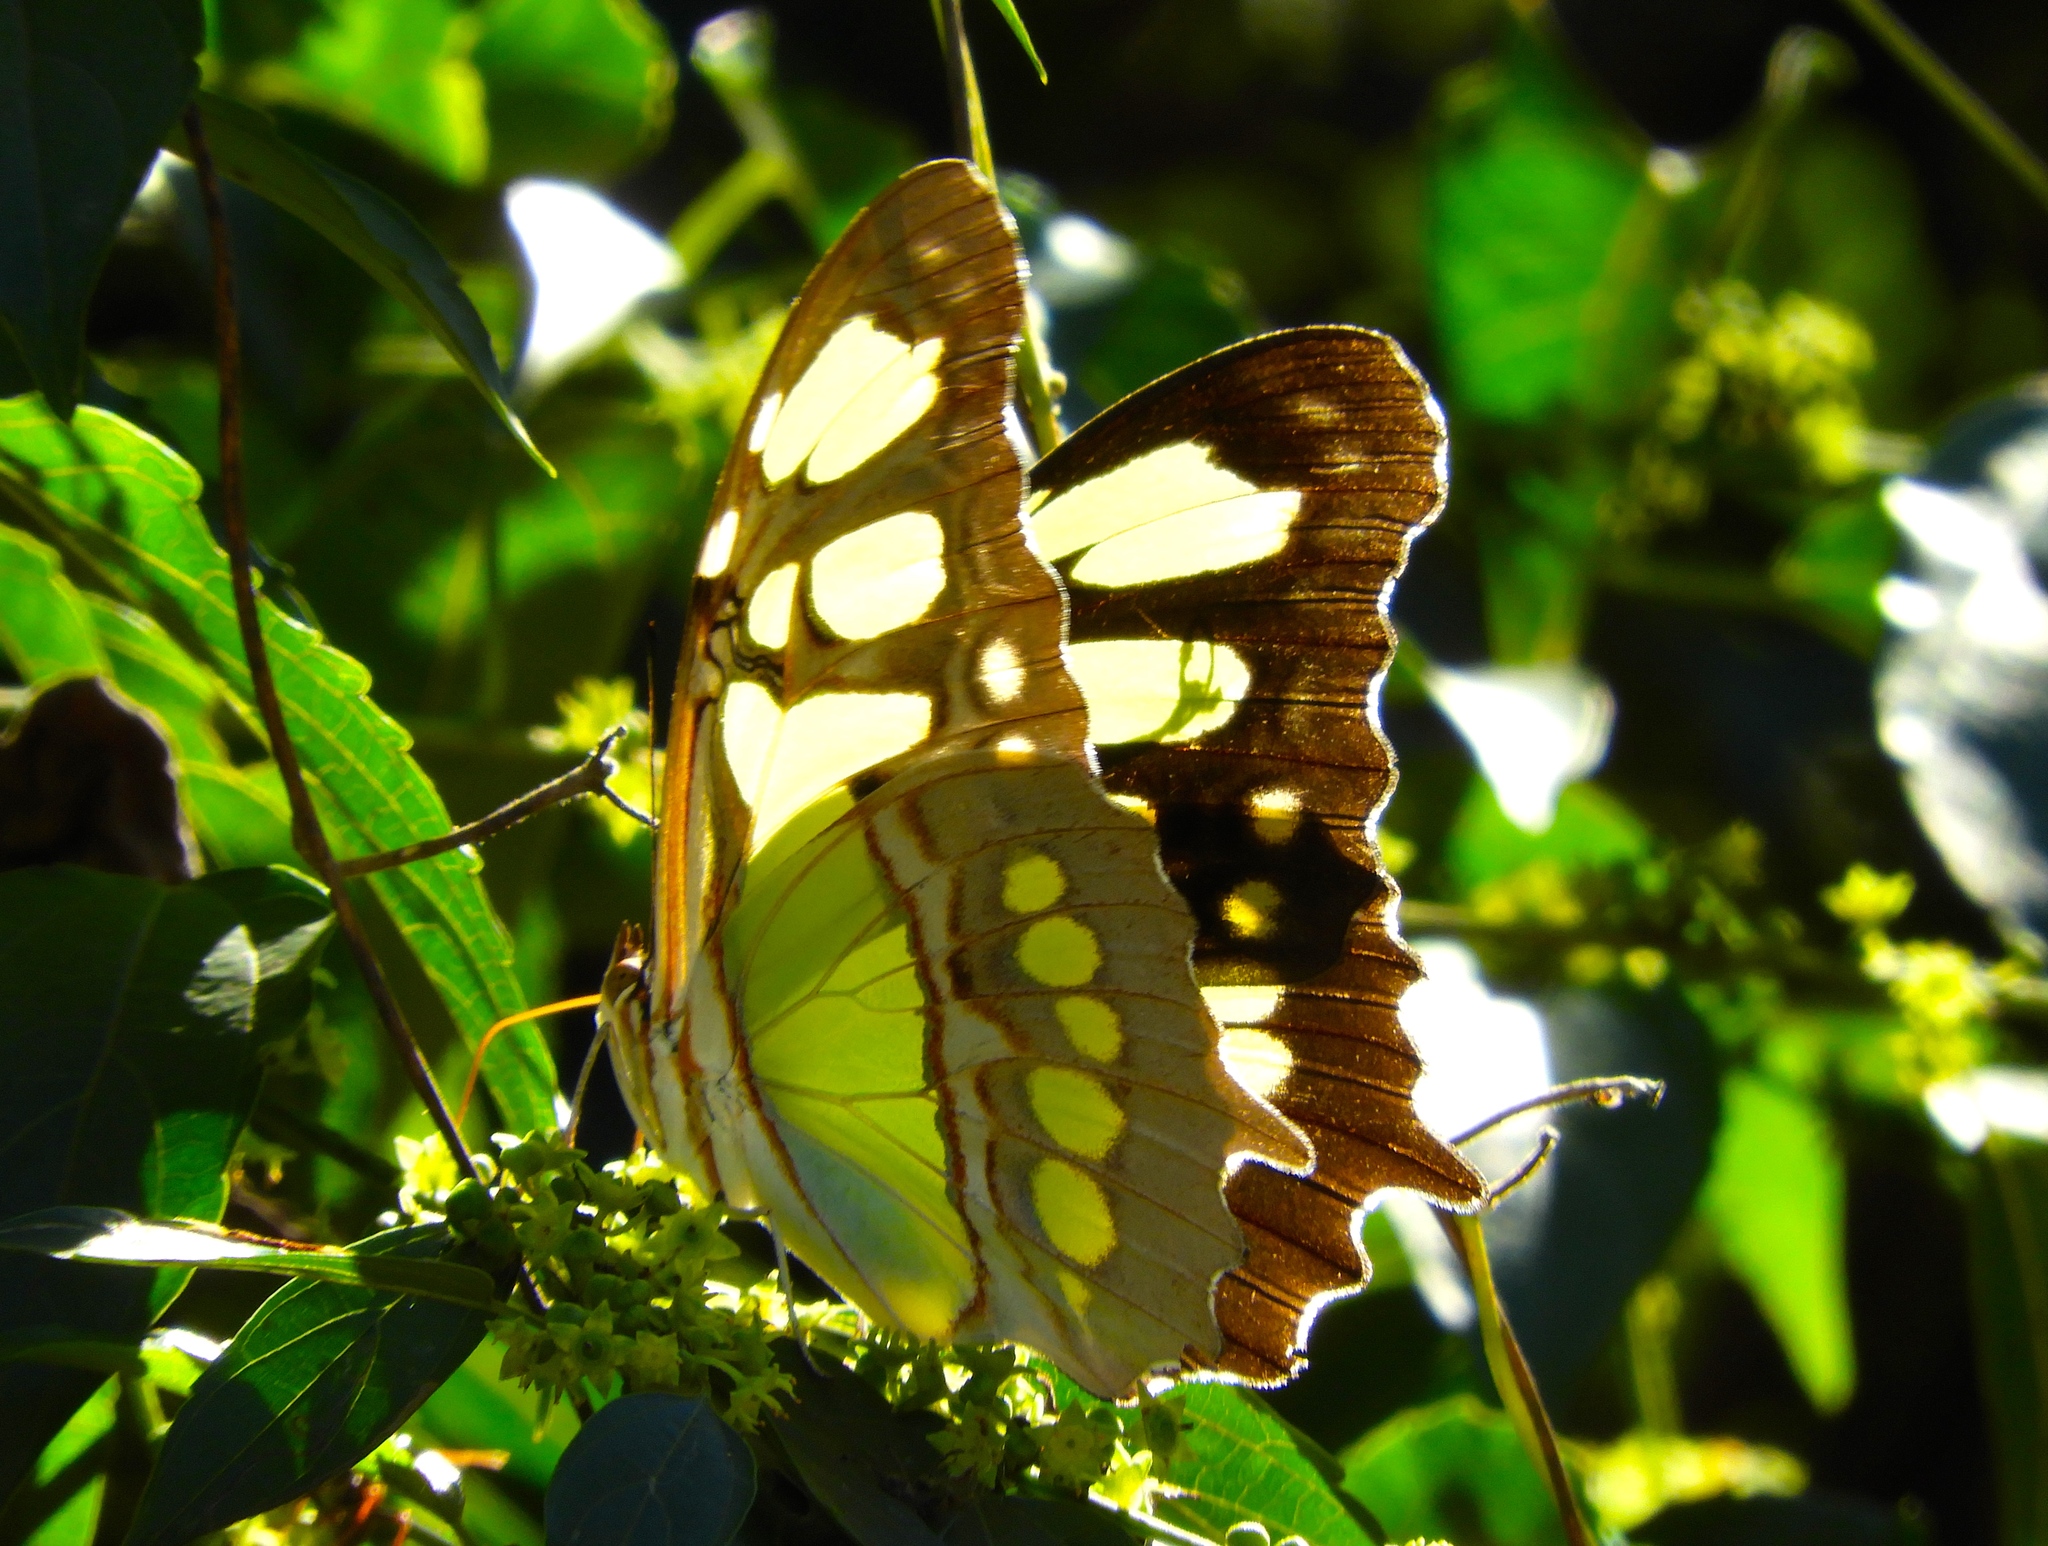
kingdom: Animalia
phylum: Arthropoda
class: Insecta
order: Lepidoptera
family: Nymphalidae
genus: Siproeta
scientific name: Siproeta stelenes
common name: Malachite
